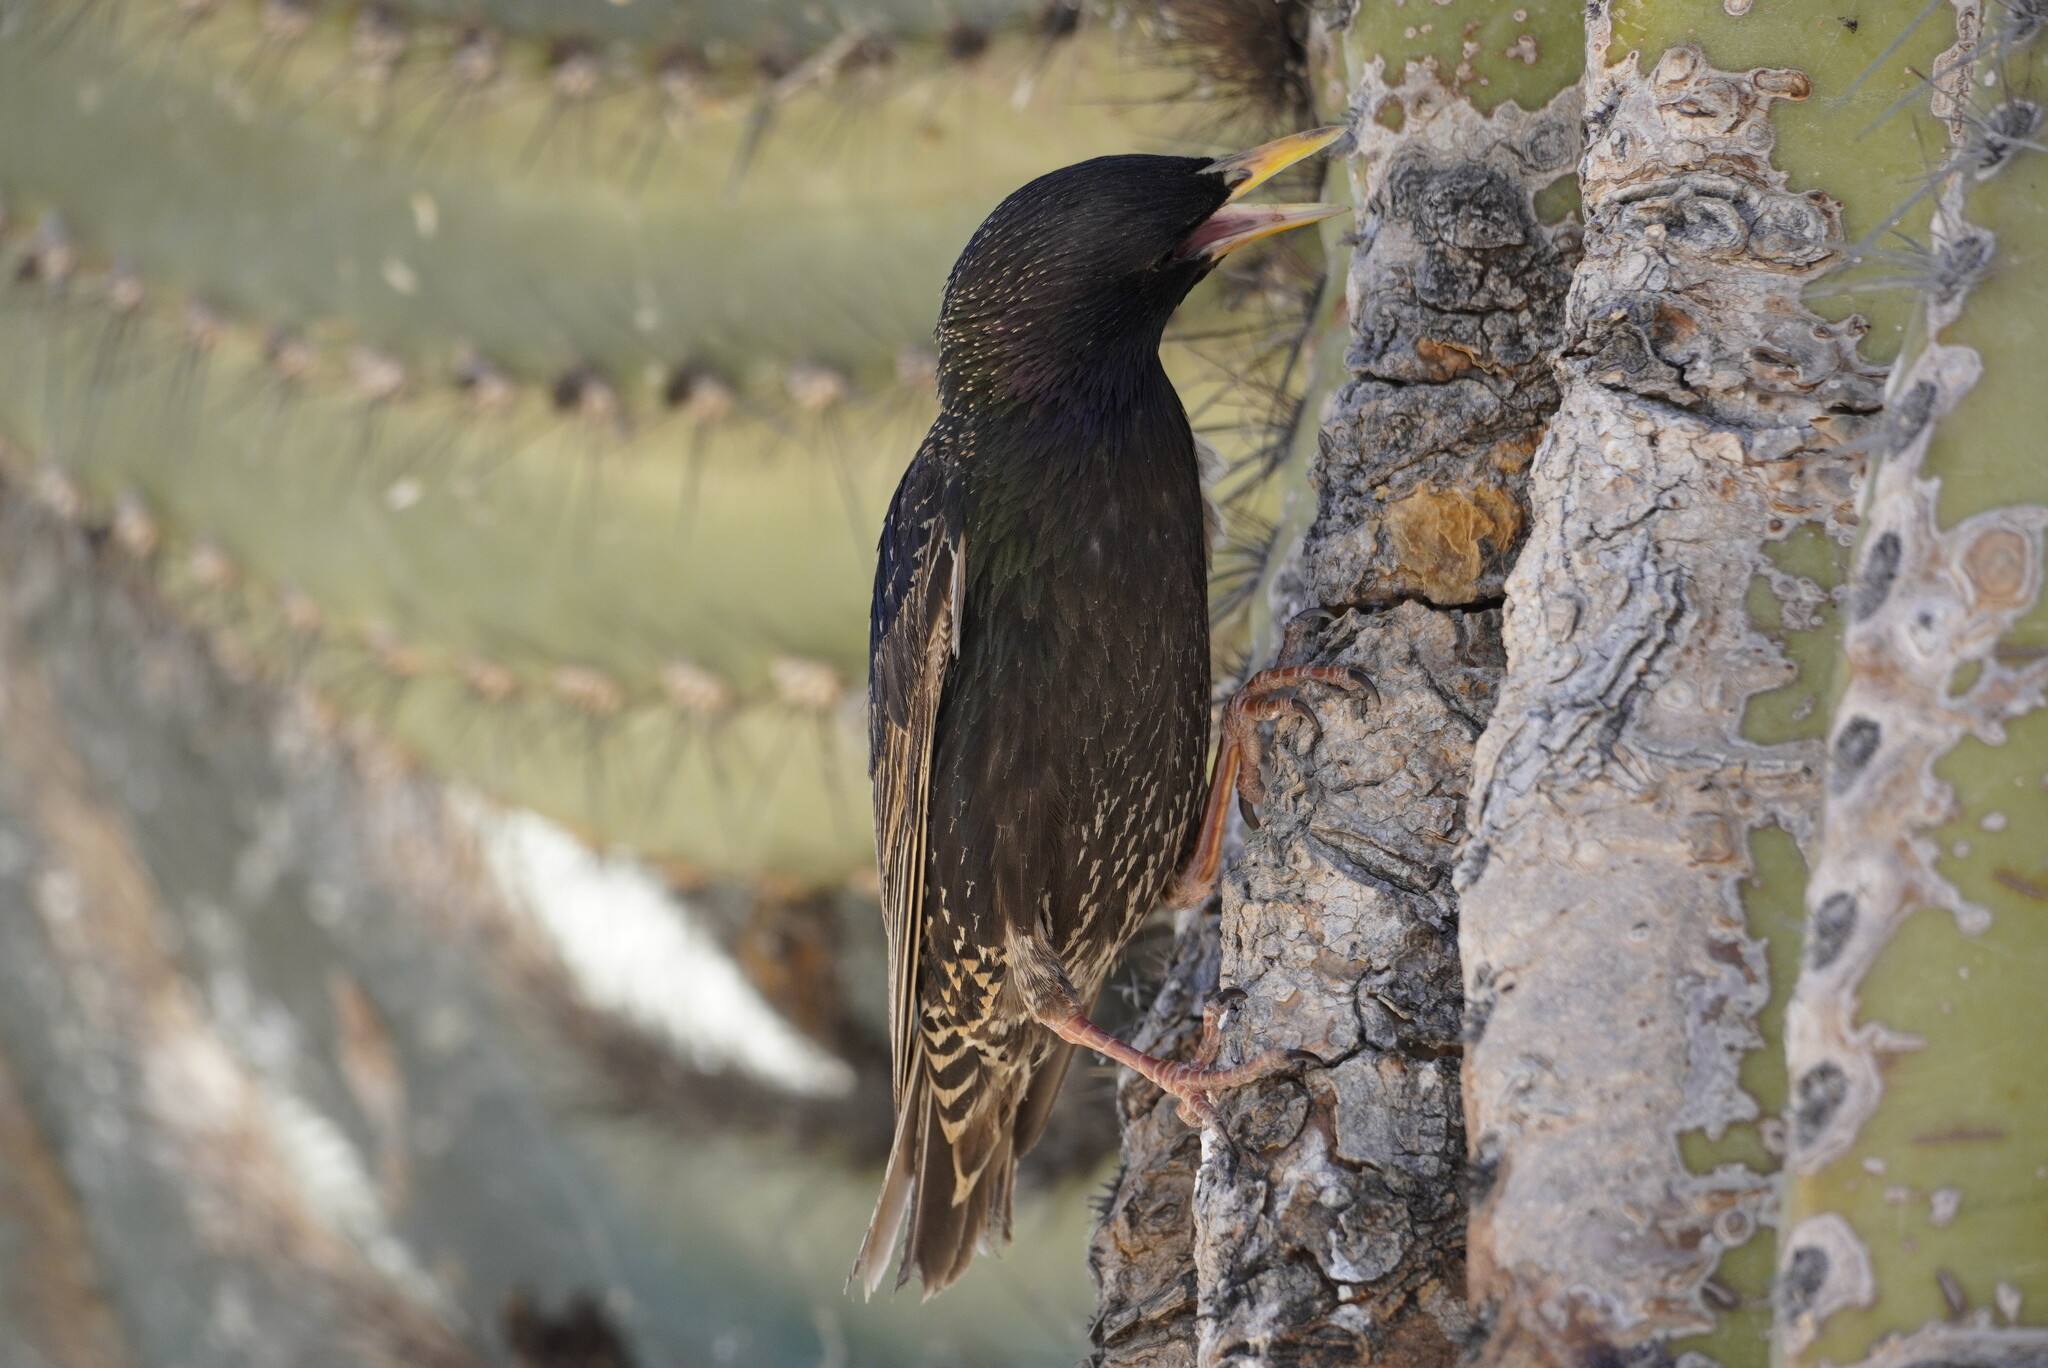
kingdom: Animalia
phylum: Chordata
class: Aves
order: Passeriformes
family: Sturnidae
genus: Sturnus
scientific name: Sturnus vulgaris
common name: Common starling
